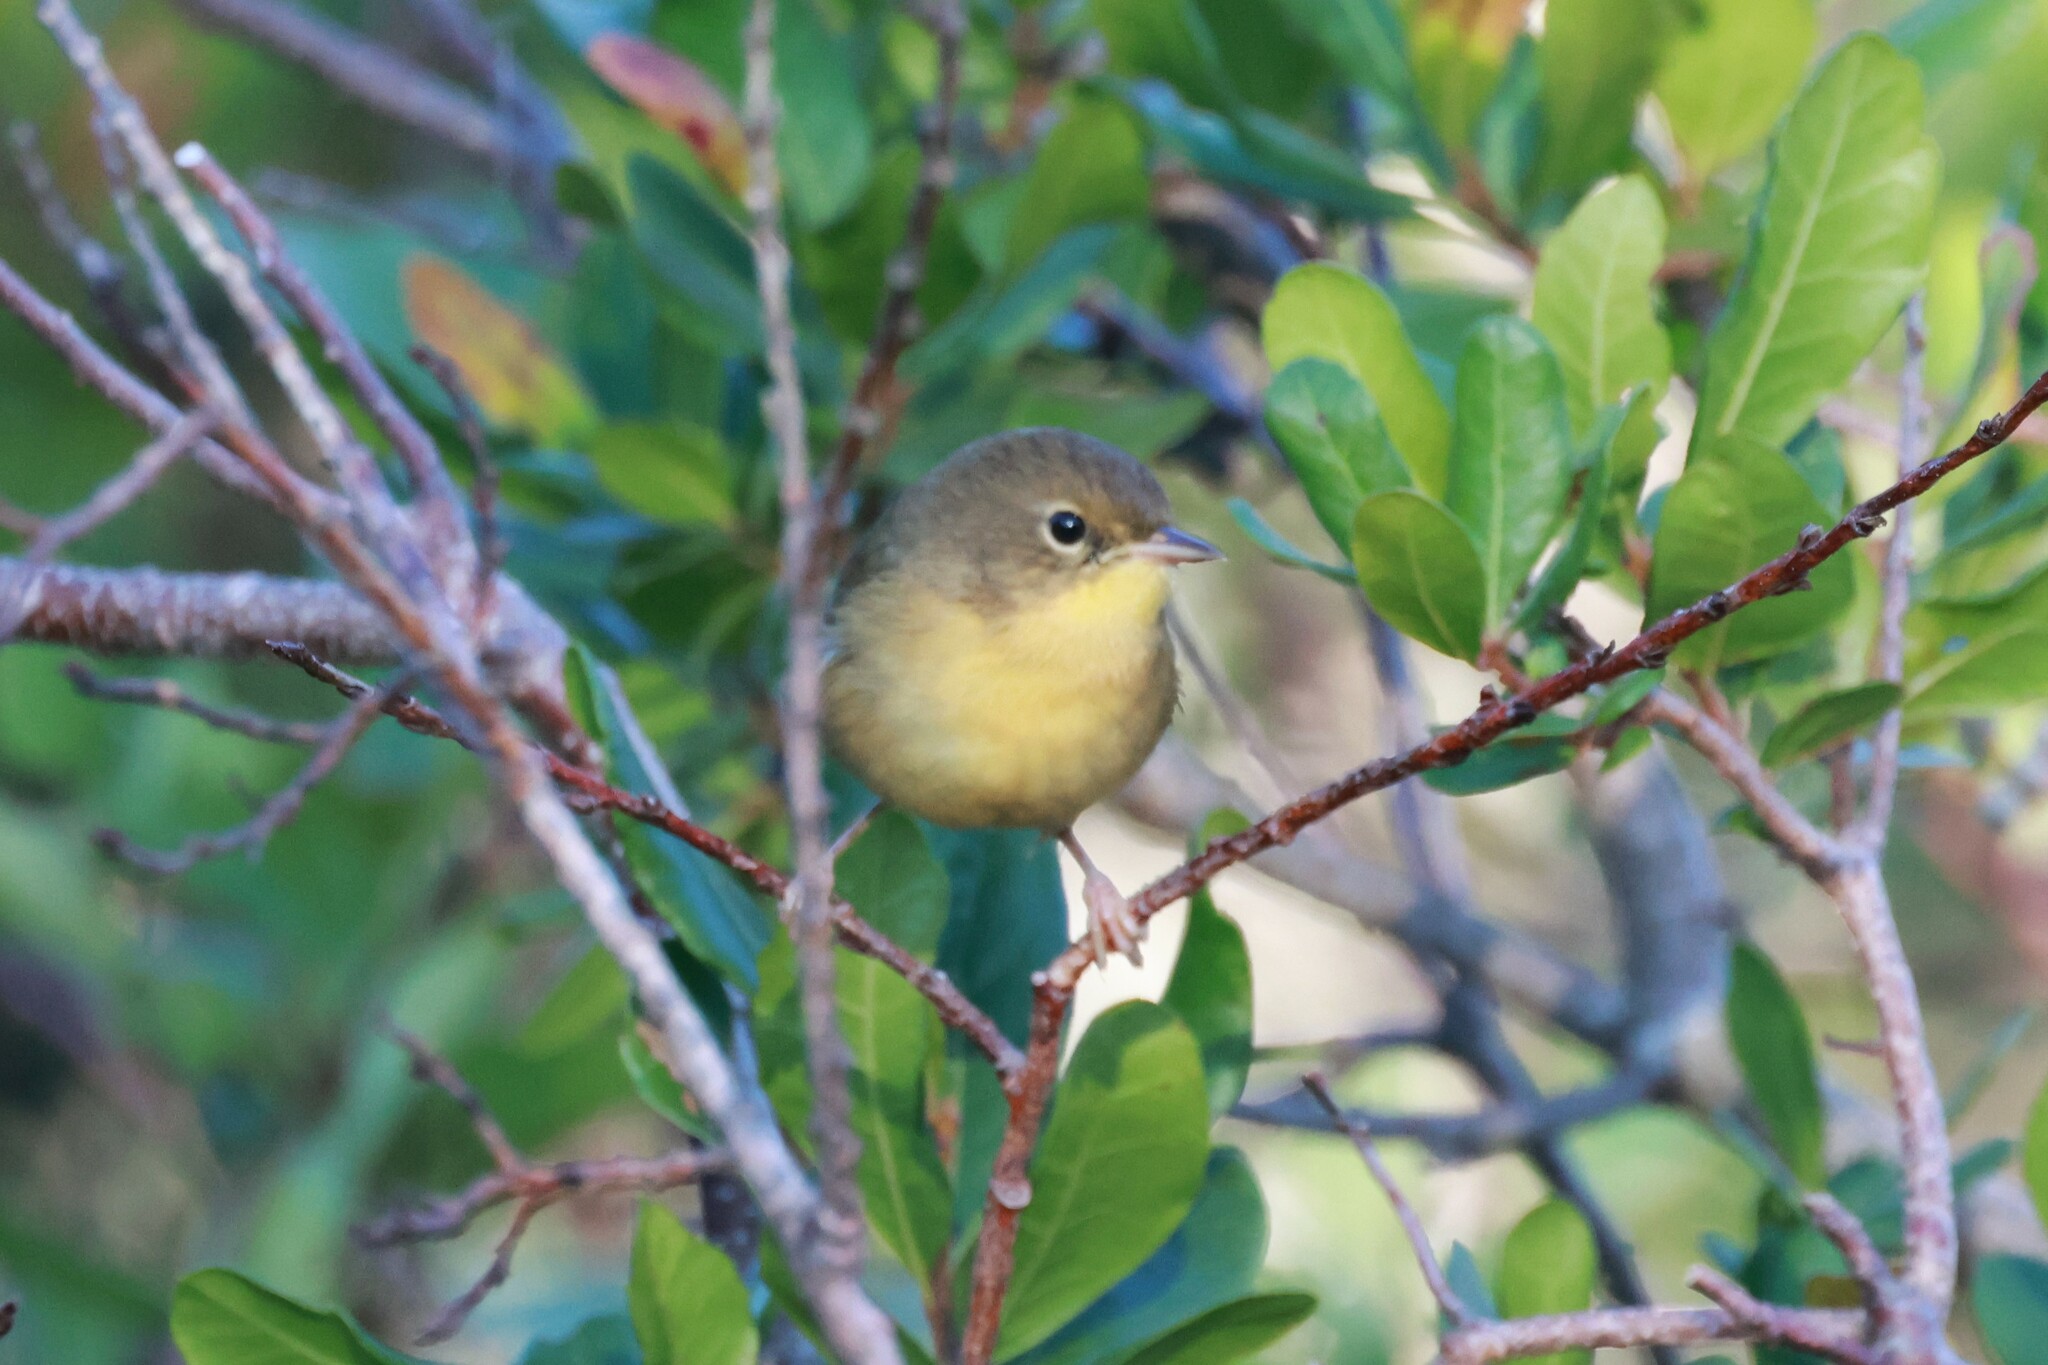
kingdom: Animalia
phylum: Chordata
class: Aves
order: Passeriformes
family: Parulidae
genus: Geothlypis
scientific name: Geothlypis trichas
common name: Common yellowthroat
